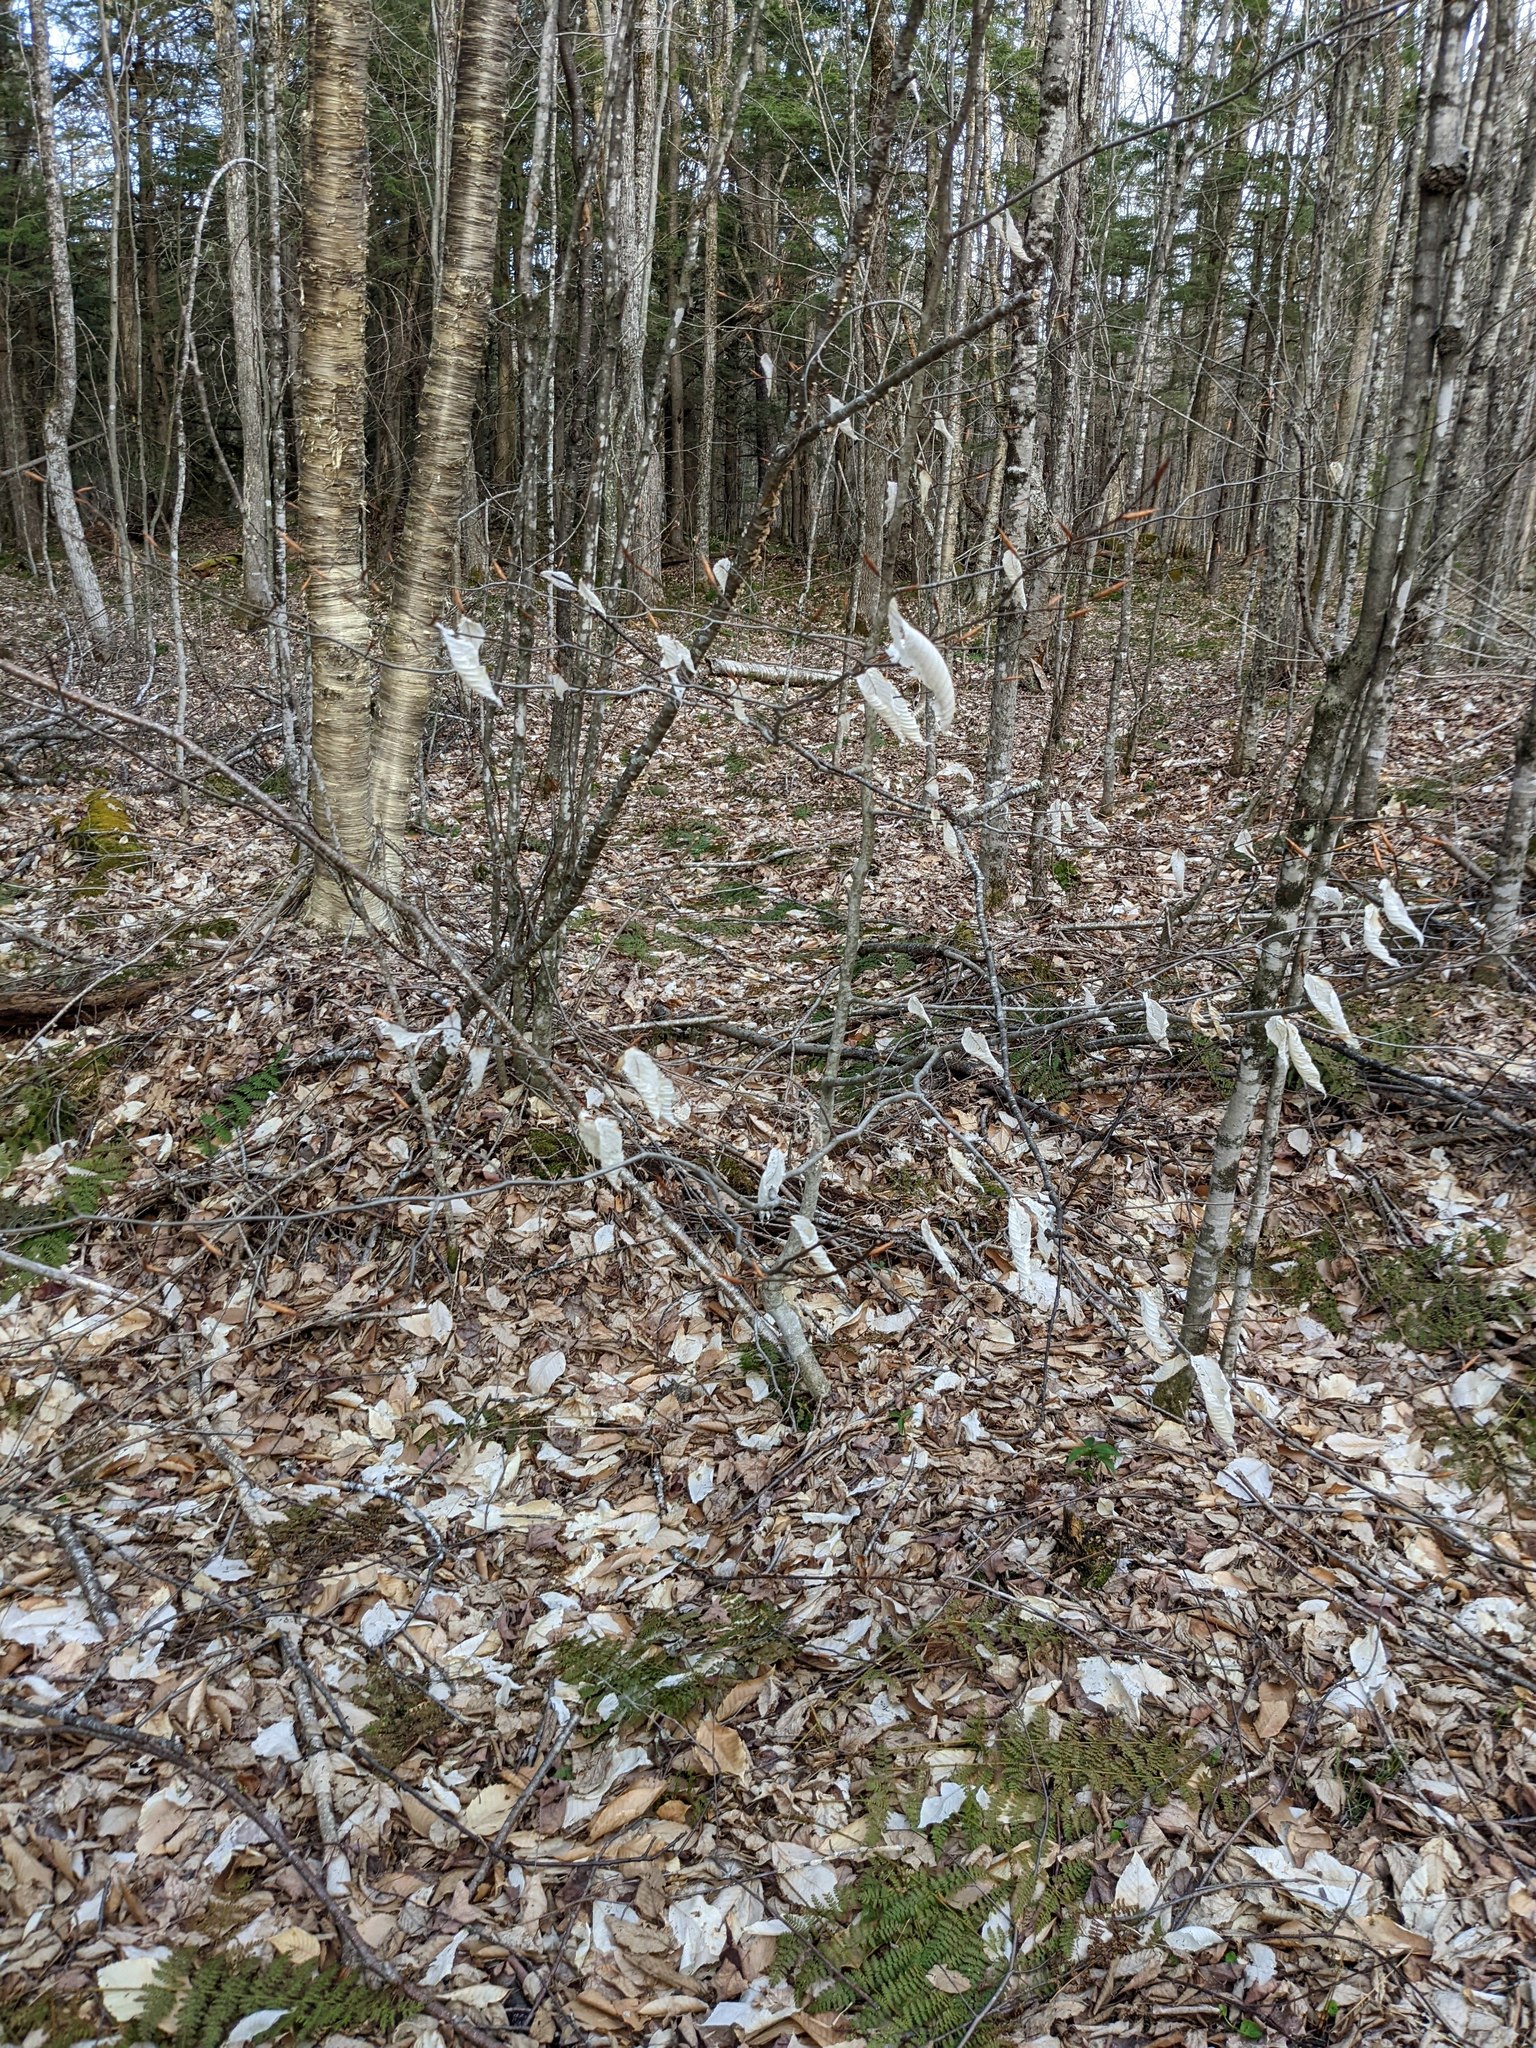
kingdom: Plantae
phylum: Tracheophyta
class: Magnoliopsida
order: Fagales
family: Fagaceae
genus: Fagus
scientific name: Fagus grandifolia
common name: American beech
